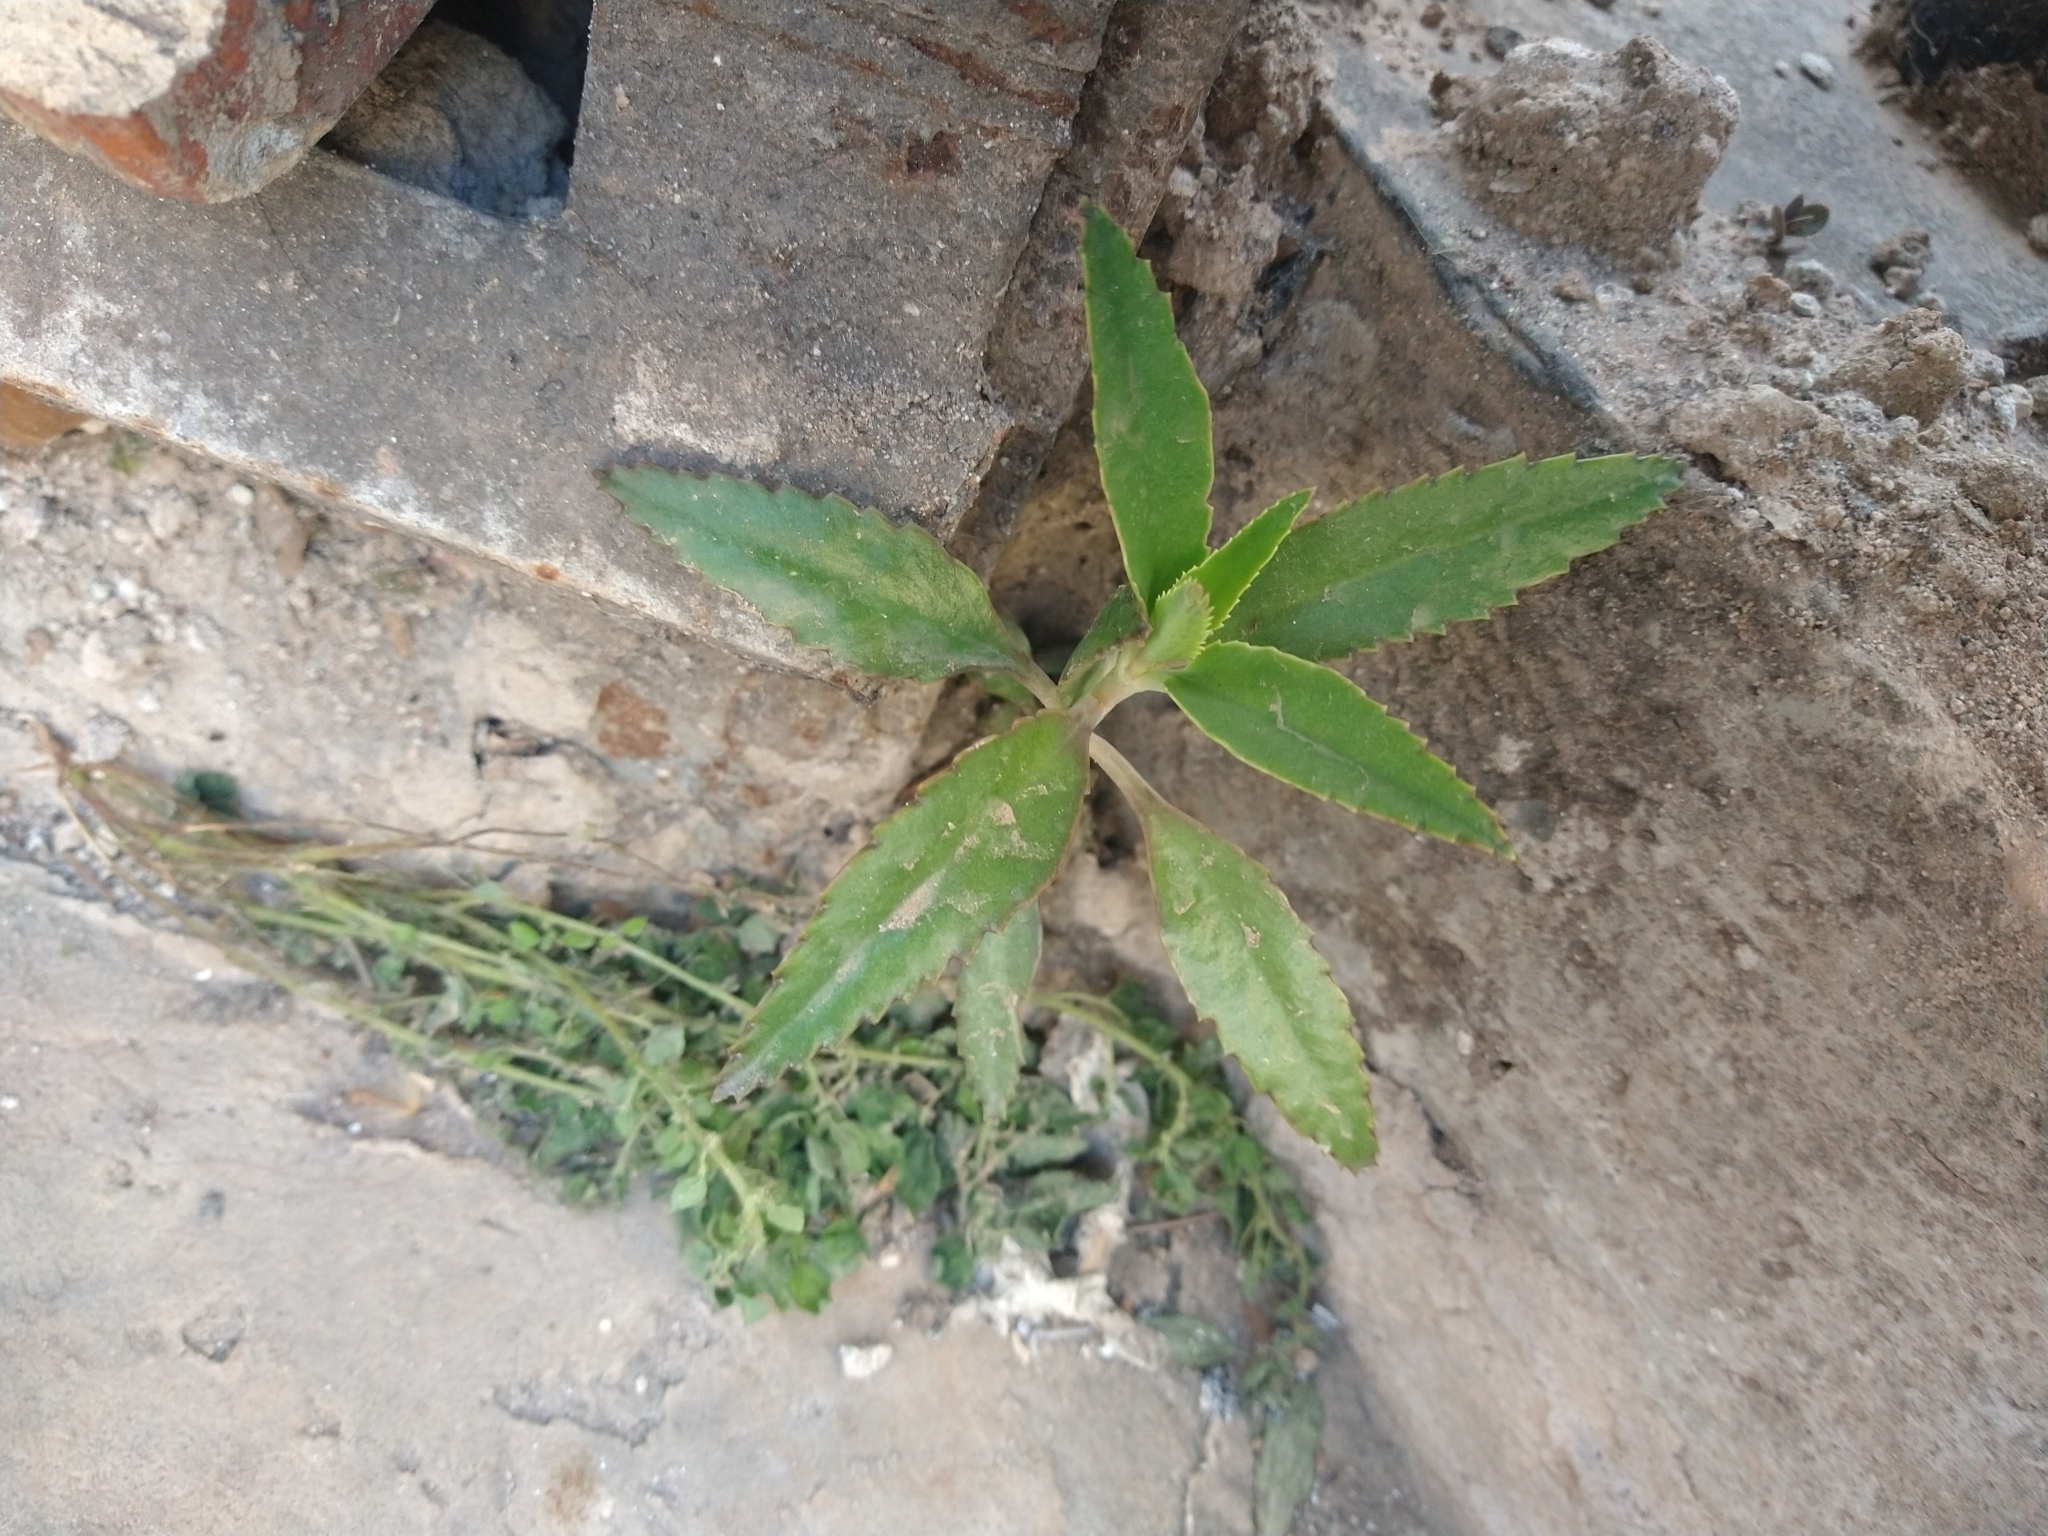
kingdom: Plantae
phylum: Tracheophyta
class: Magnoliopsida
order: Saxifragales
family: Crassulaceae
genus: Kalanchoe
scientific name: Kalanchoe houghtonii
